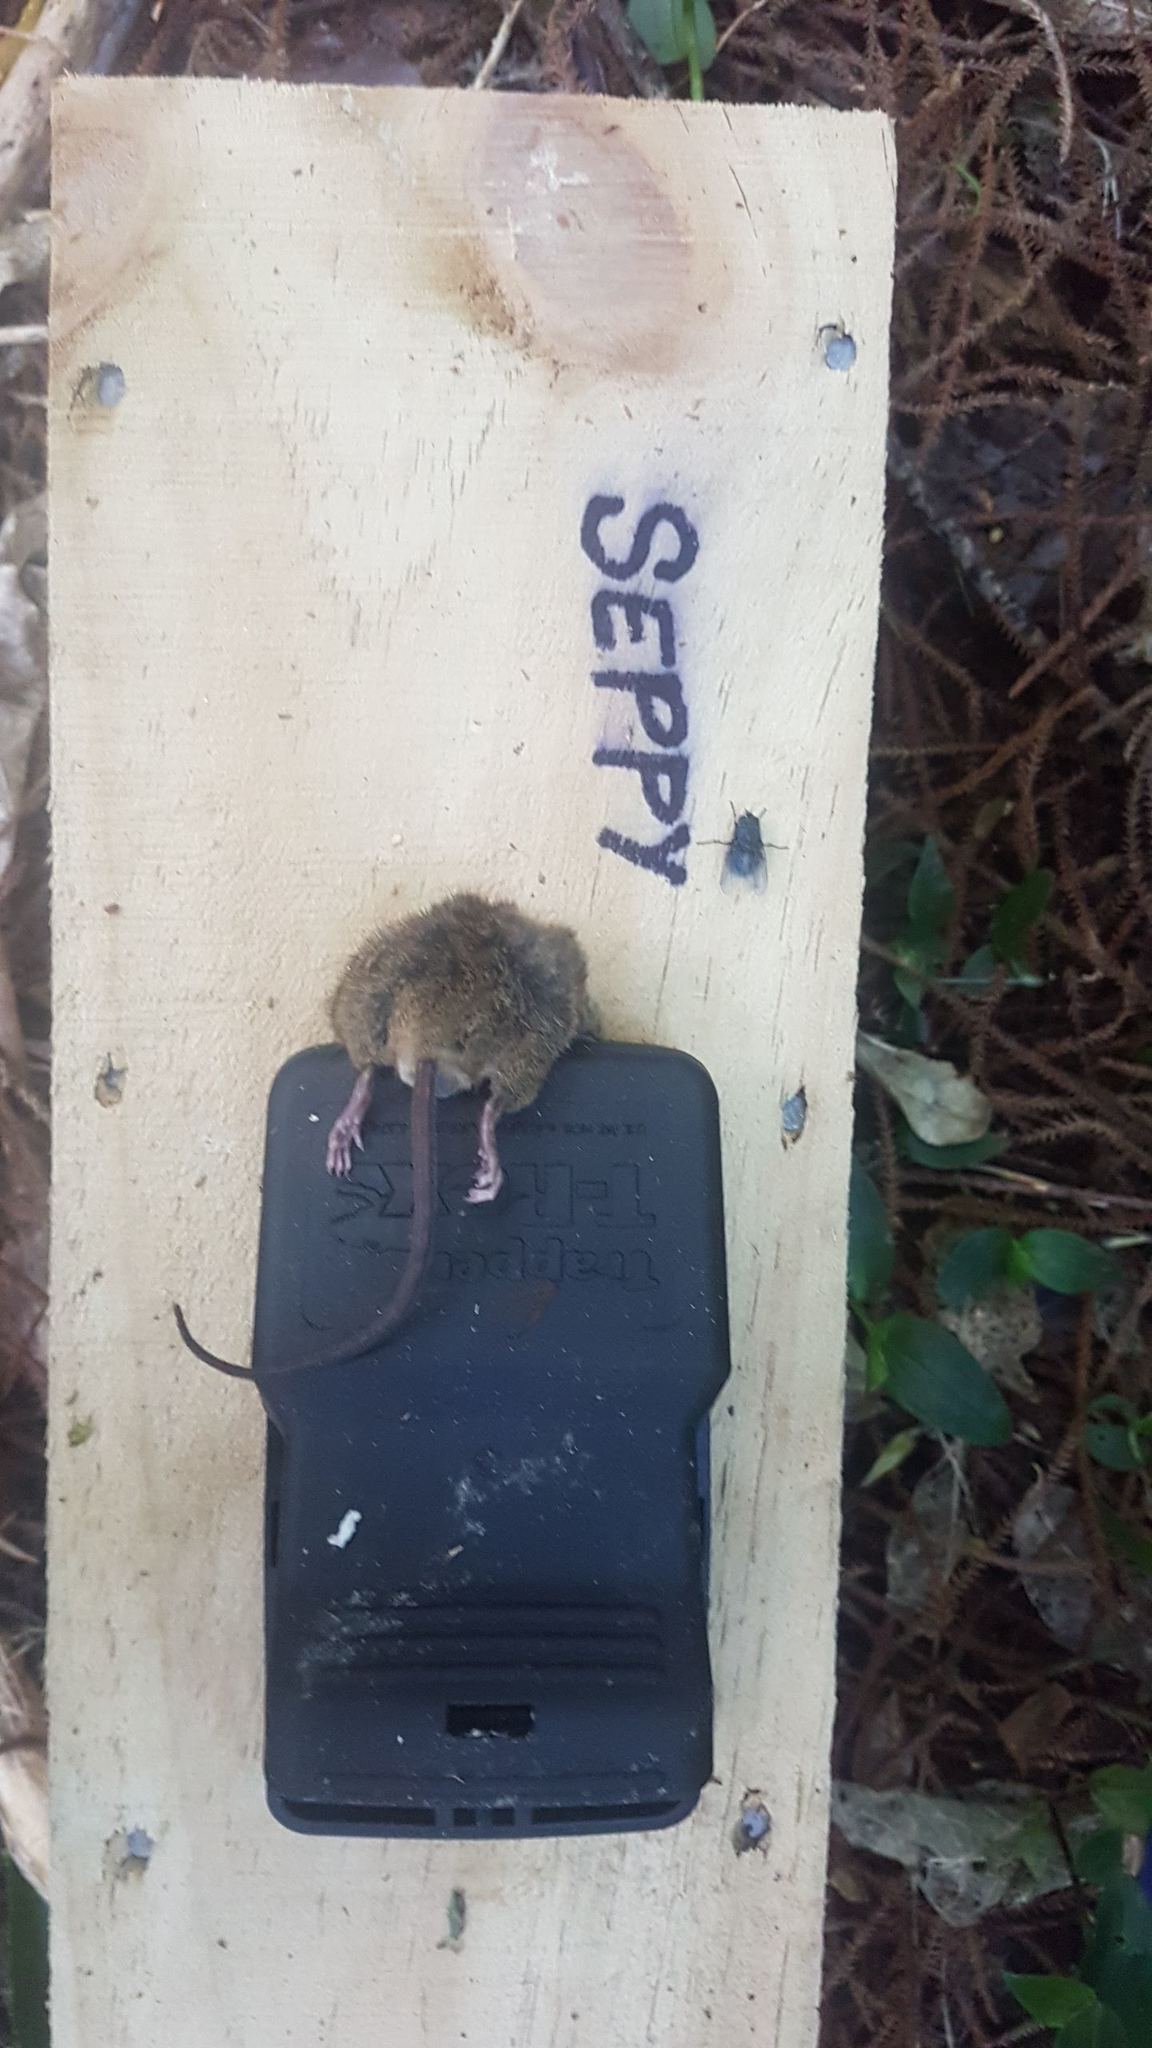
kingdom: Animalia
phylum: Chordata
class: Mammalia
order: Rodentia
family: Muridae
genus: Mus
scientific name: Mus musculus
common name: House mouse
